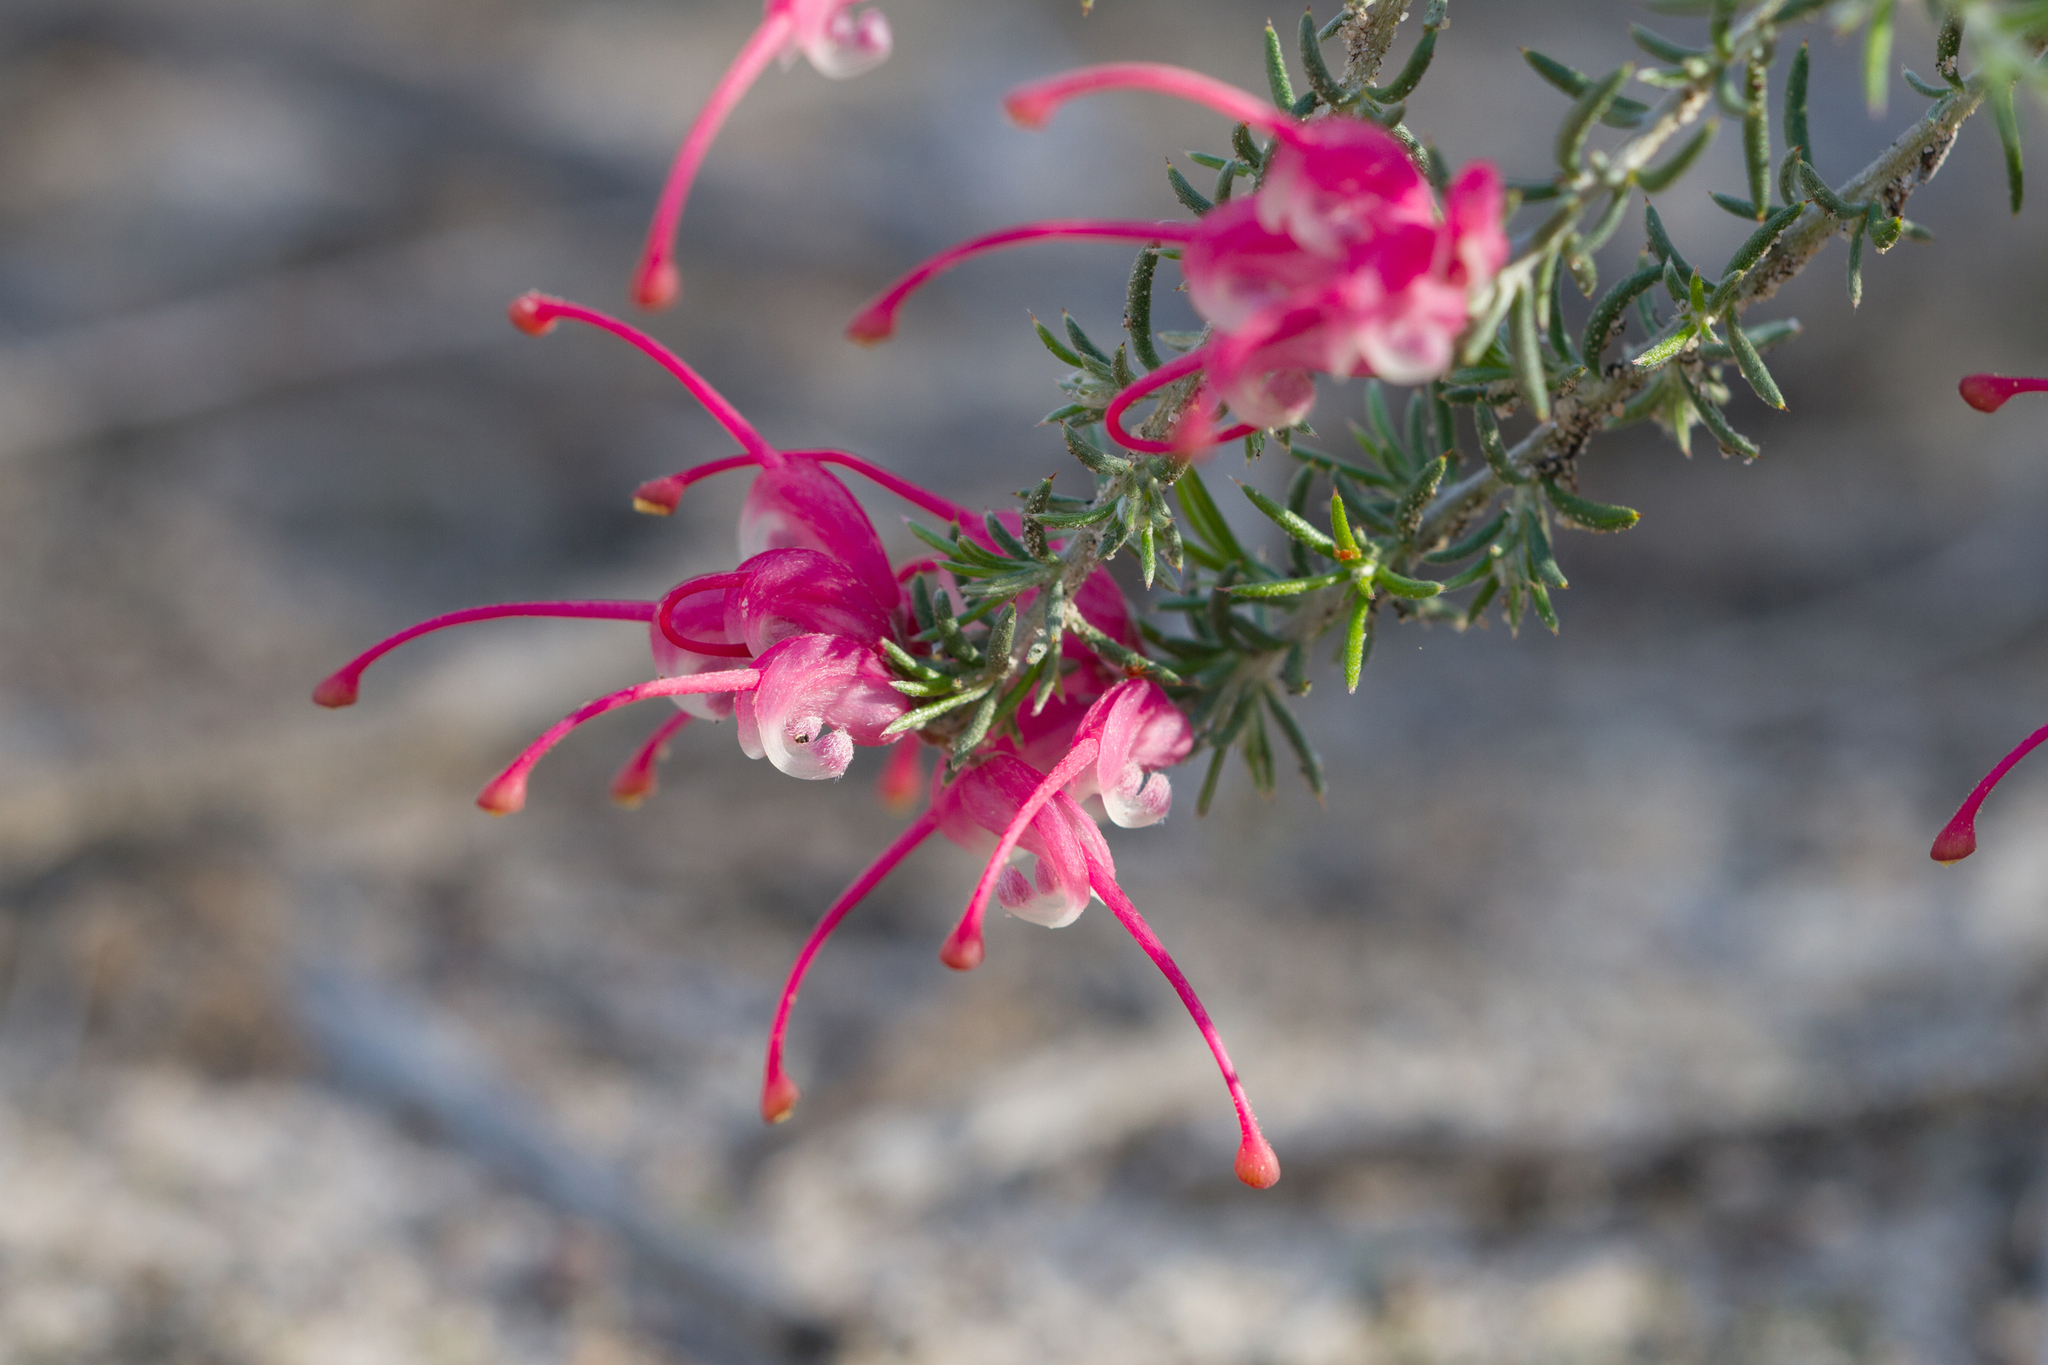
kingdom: Plantae
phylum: Tracheophyta
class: Magnoliopsida
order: Proteales
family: Proteaceae
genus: Grevillea
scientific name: Grevillea lavandulacea
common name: Lavender grevillea
